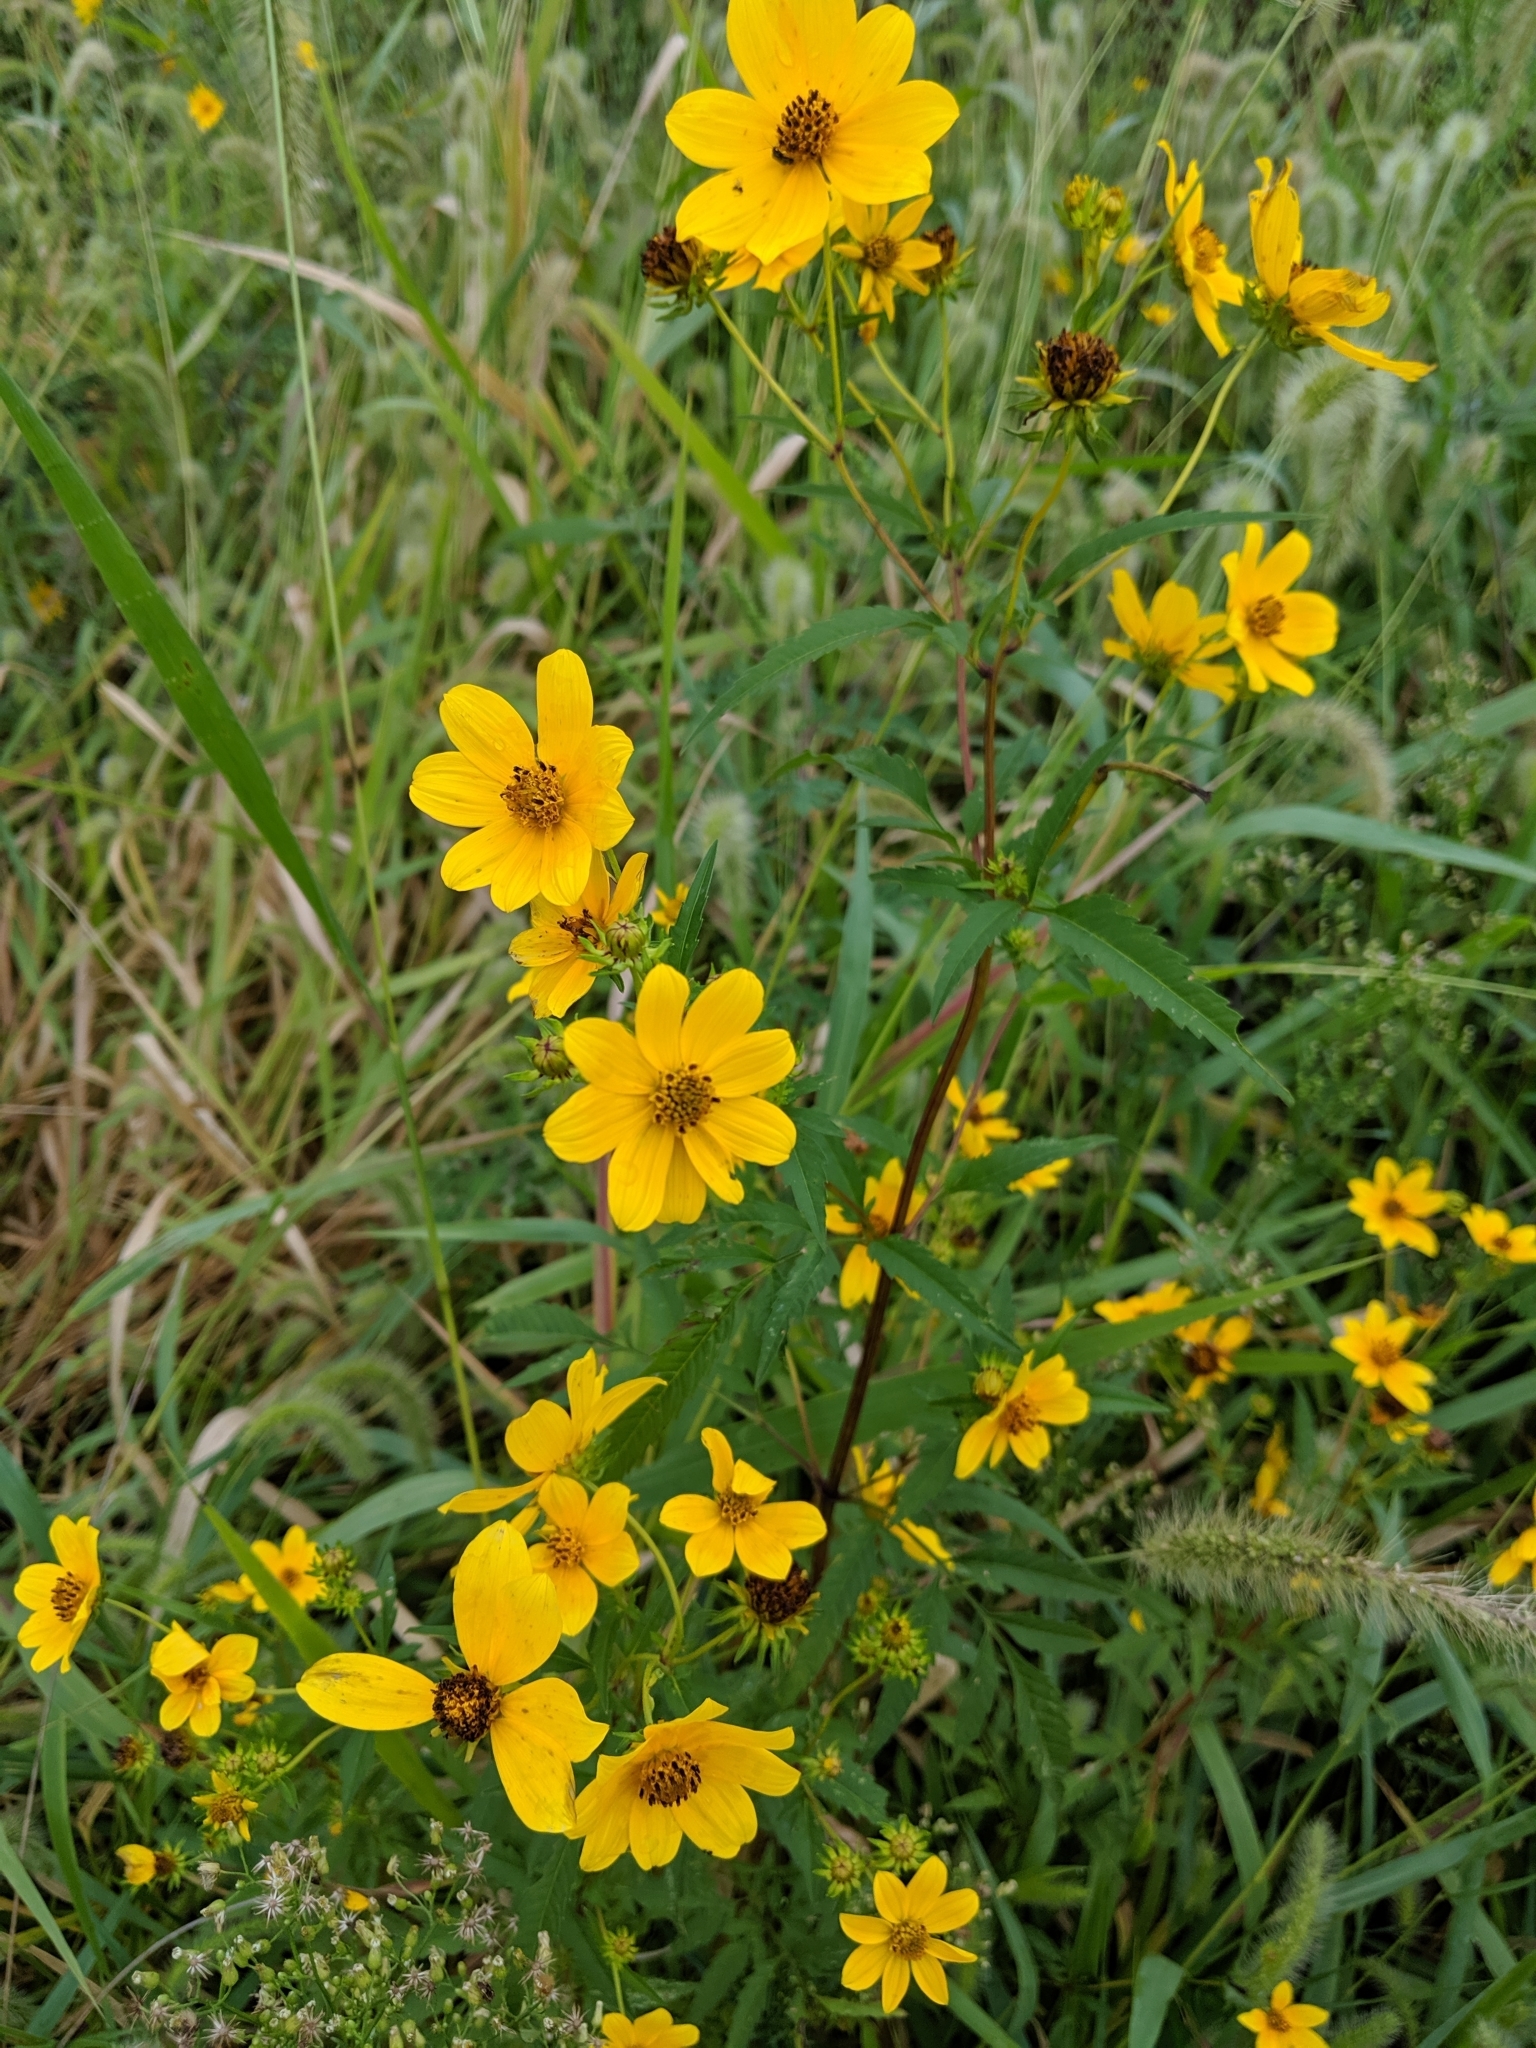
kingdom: Plantae
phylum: Tracheophyta
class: Magnoliopsida
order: Asterales
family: Asteraceae
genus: Bidens
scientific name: Bidens aristosa
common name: Western tickseed
